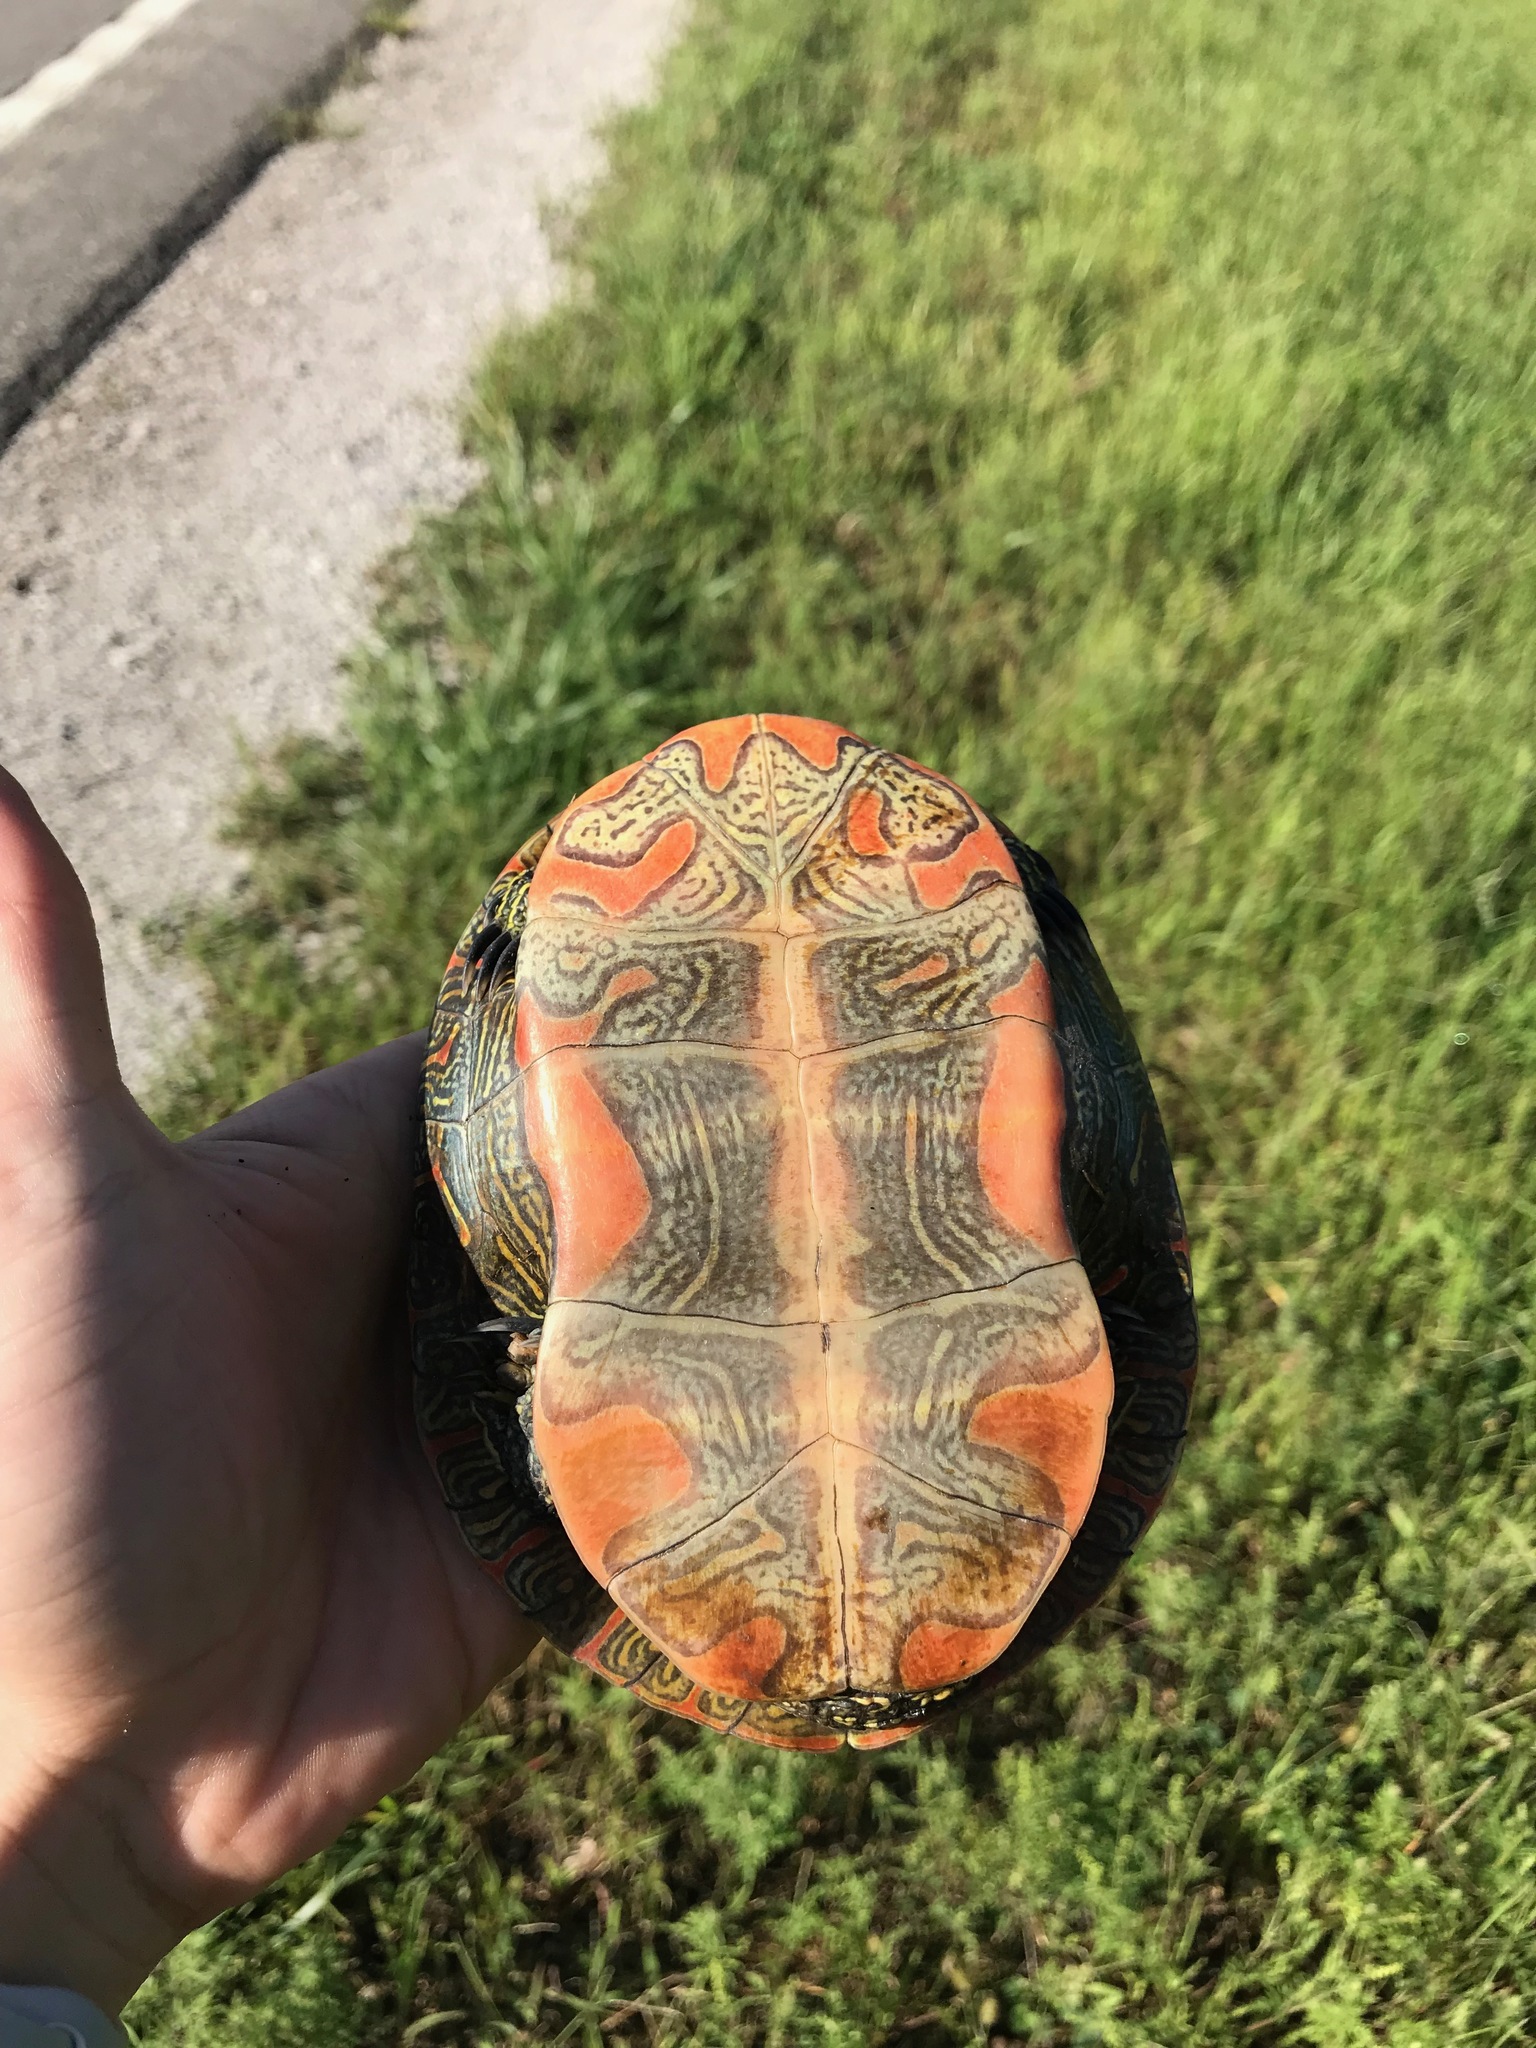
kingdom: Animalia
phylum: Chordata
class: Testudines
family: Emydidae
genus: Chrysemys
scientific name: Chrysemys picta
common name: Painted turtle
